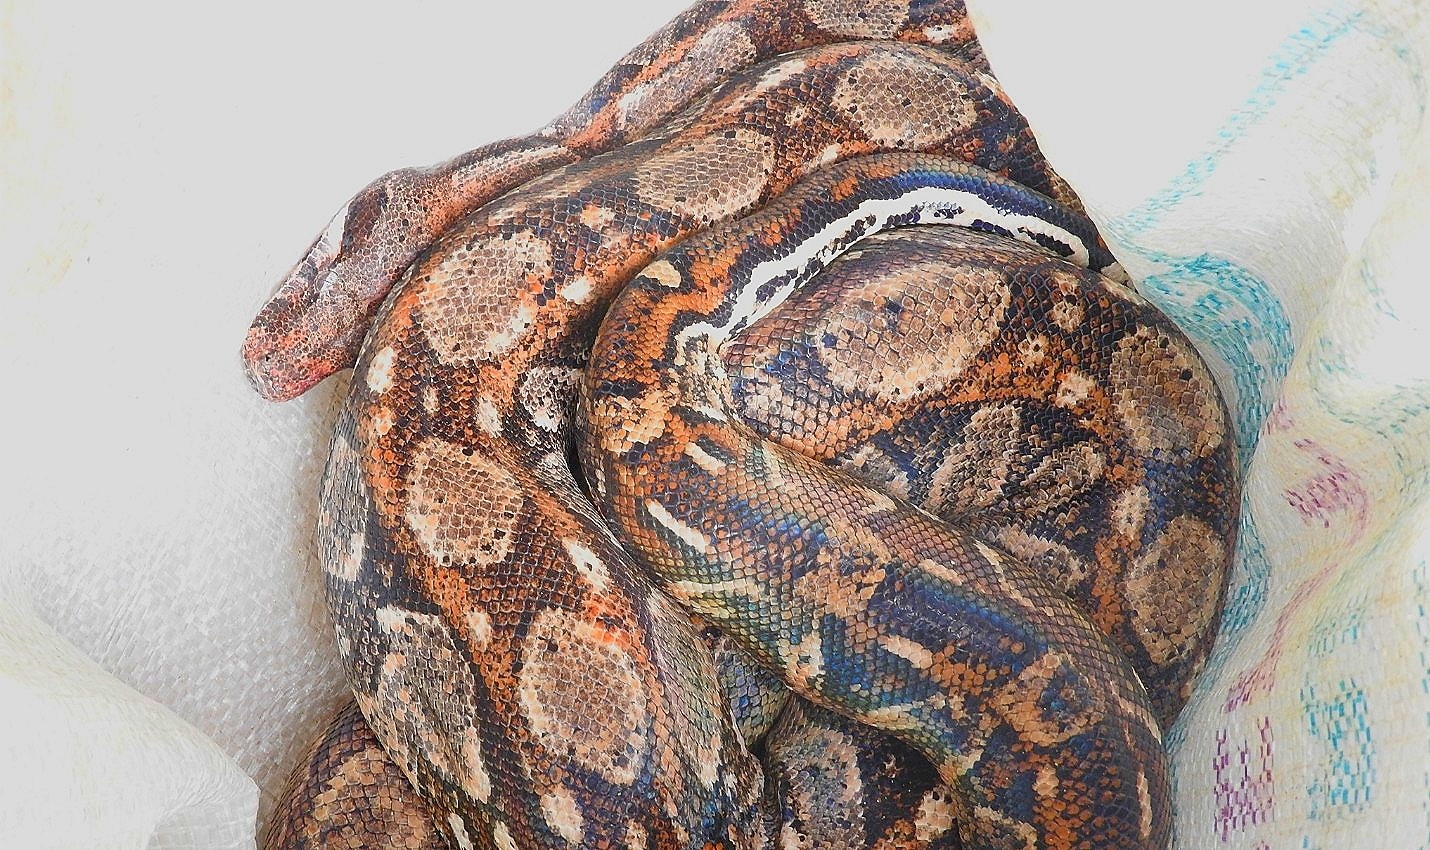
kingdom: Animalia
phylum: Chordata
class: Squamata
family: Boidae
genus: Boa
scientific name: Boa imperator
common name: Central american boa
